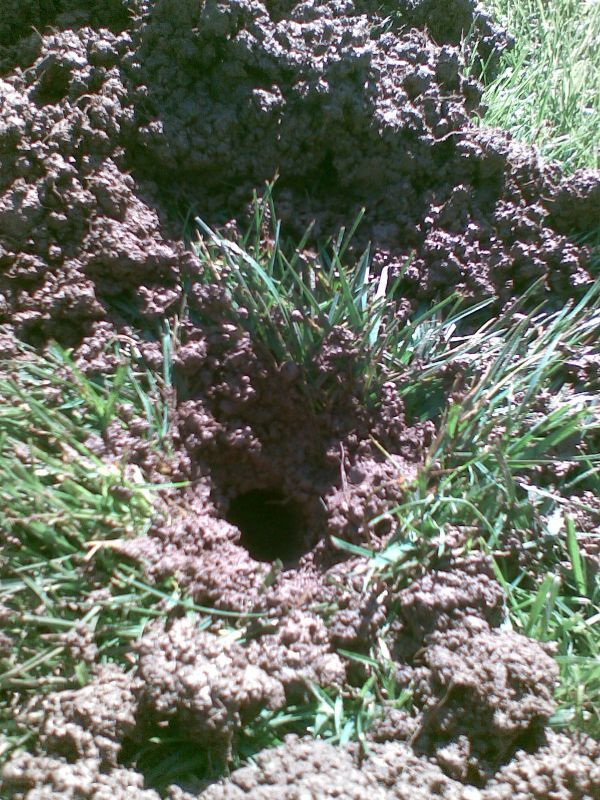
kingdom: Animalia
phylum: Chordata
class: Mammalia
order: Soricomorpha
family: Talpidae
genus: Talpa
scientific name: Talpa occidentalis
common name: Iberian mole
